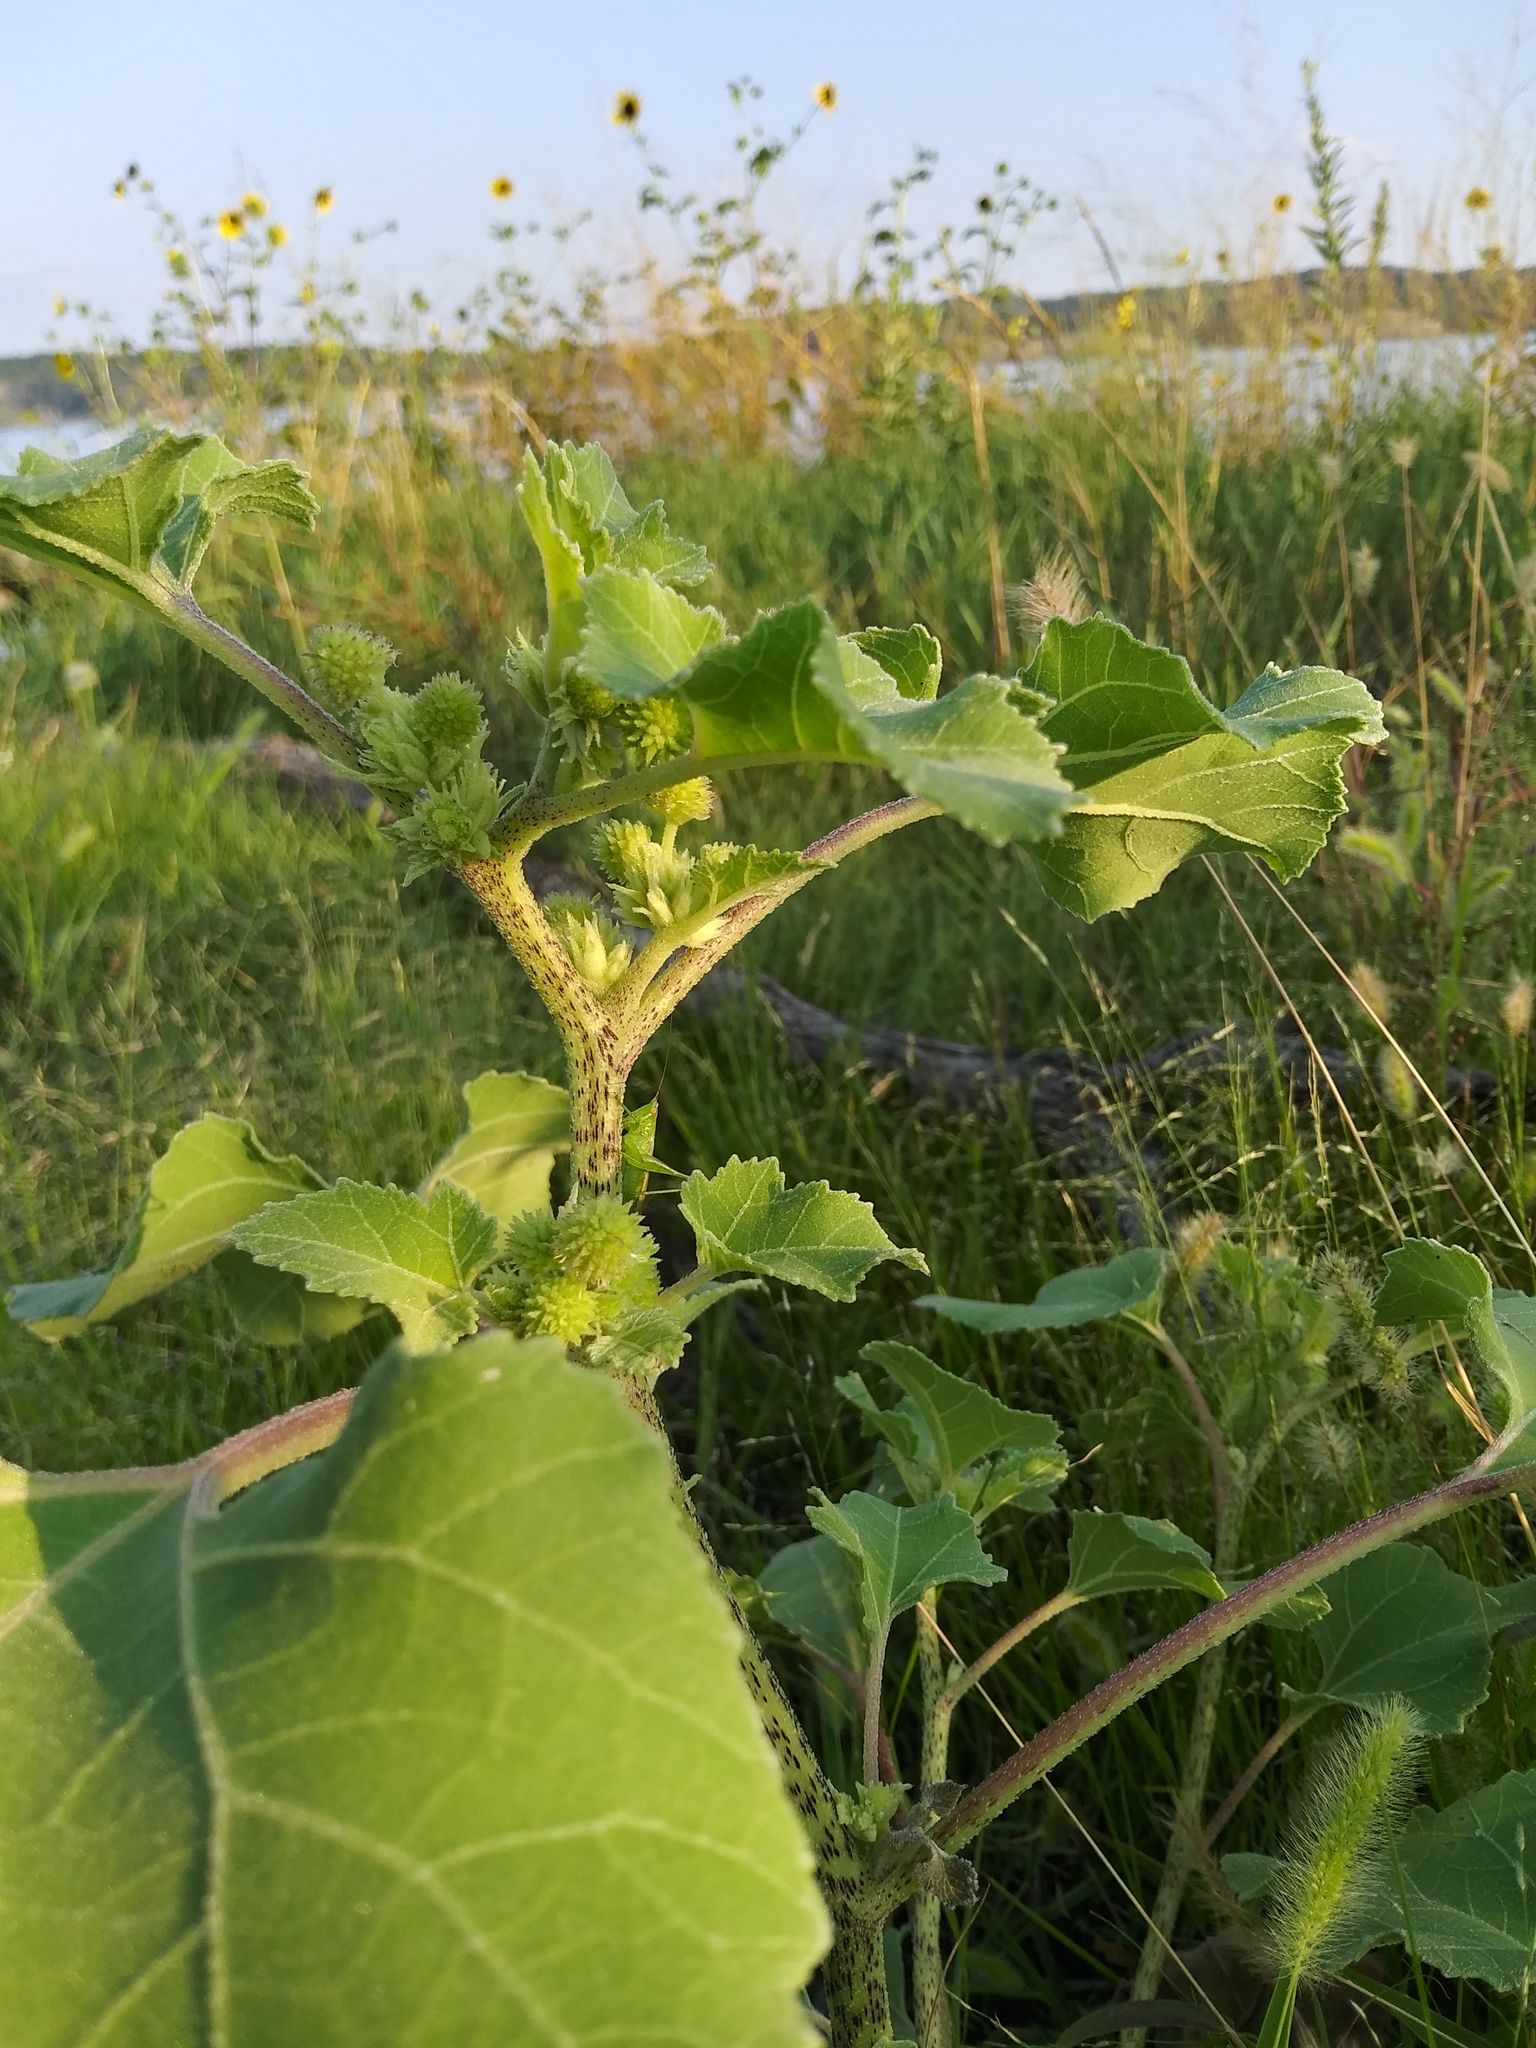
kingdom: Plantae
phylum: Tracheophyta
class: Magnoliopsida
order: Asterales
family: Asteraceae
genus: Xanthium
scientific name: Xanthium strumarium
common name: Rough cocklebur
